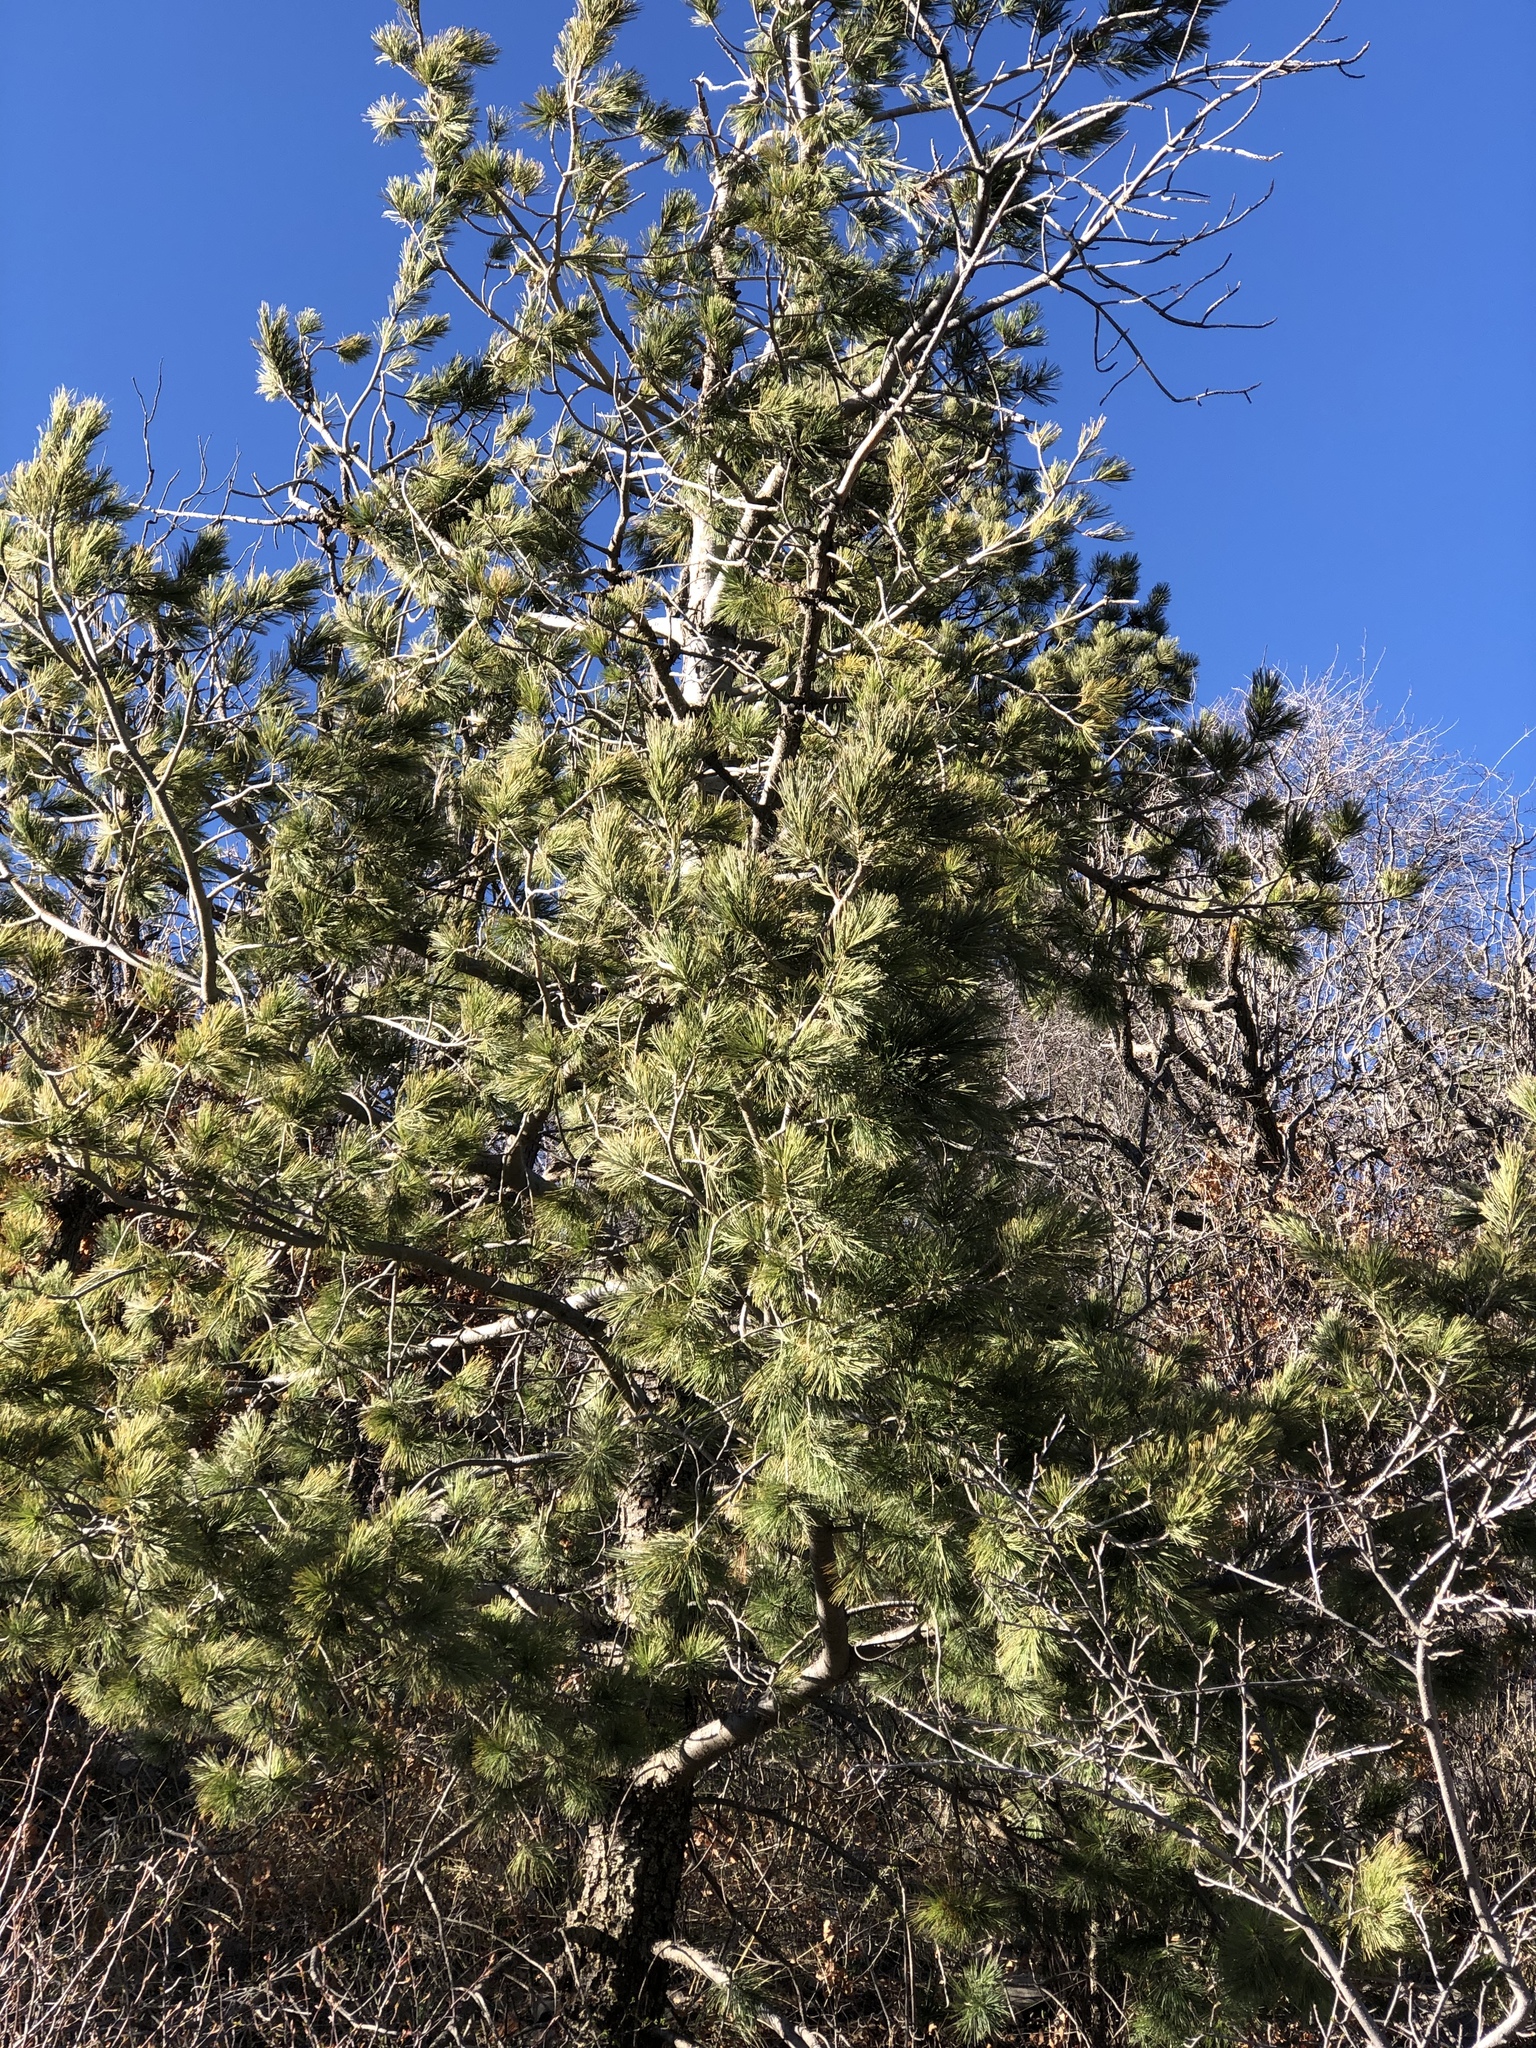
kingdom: Plantae
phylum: Tracheophyta
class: Pinopsida
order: Pinales
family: Pinaceae
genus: Pinus
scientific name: Pinus strobiformis
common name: Southwestern white pine
